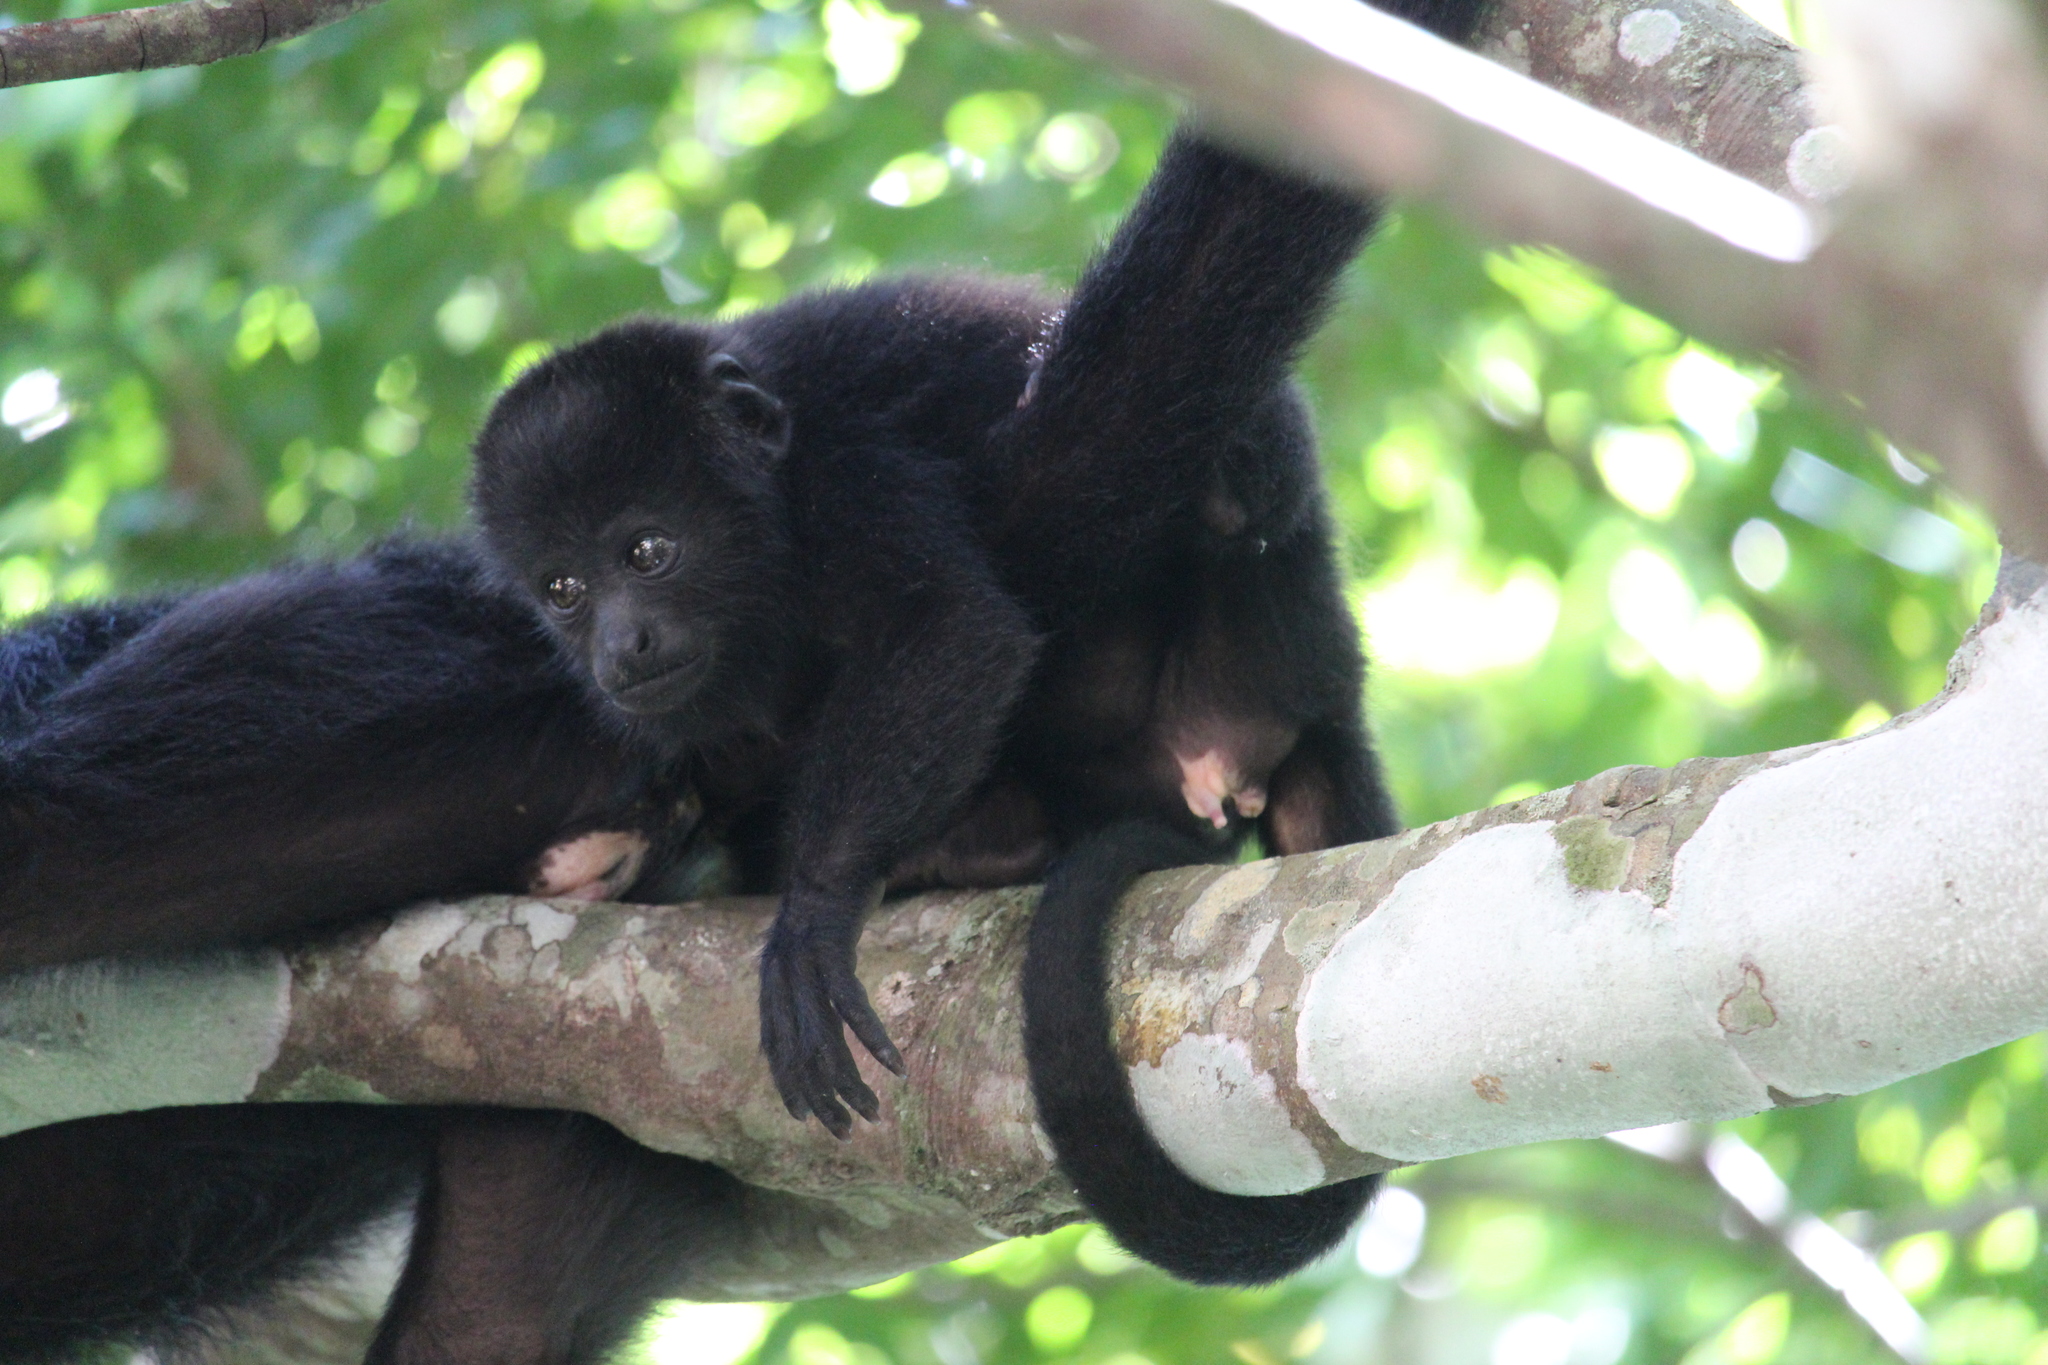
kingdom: Animalia
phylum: Chordata
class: Mammalia
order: Primates
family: Atelidae
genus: Alouatta
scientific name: Alouatta pigra
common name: Guatemalan black howler
